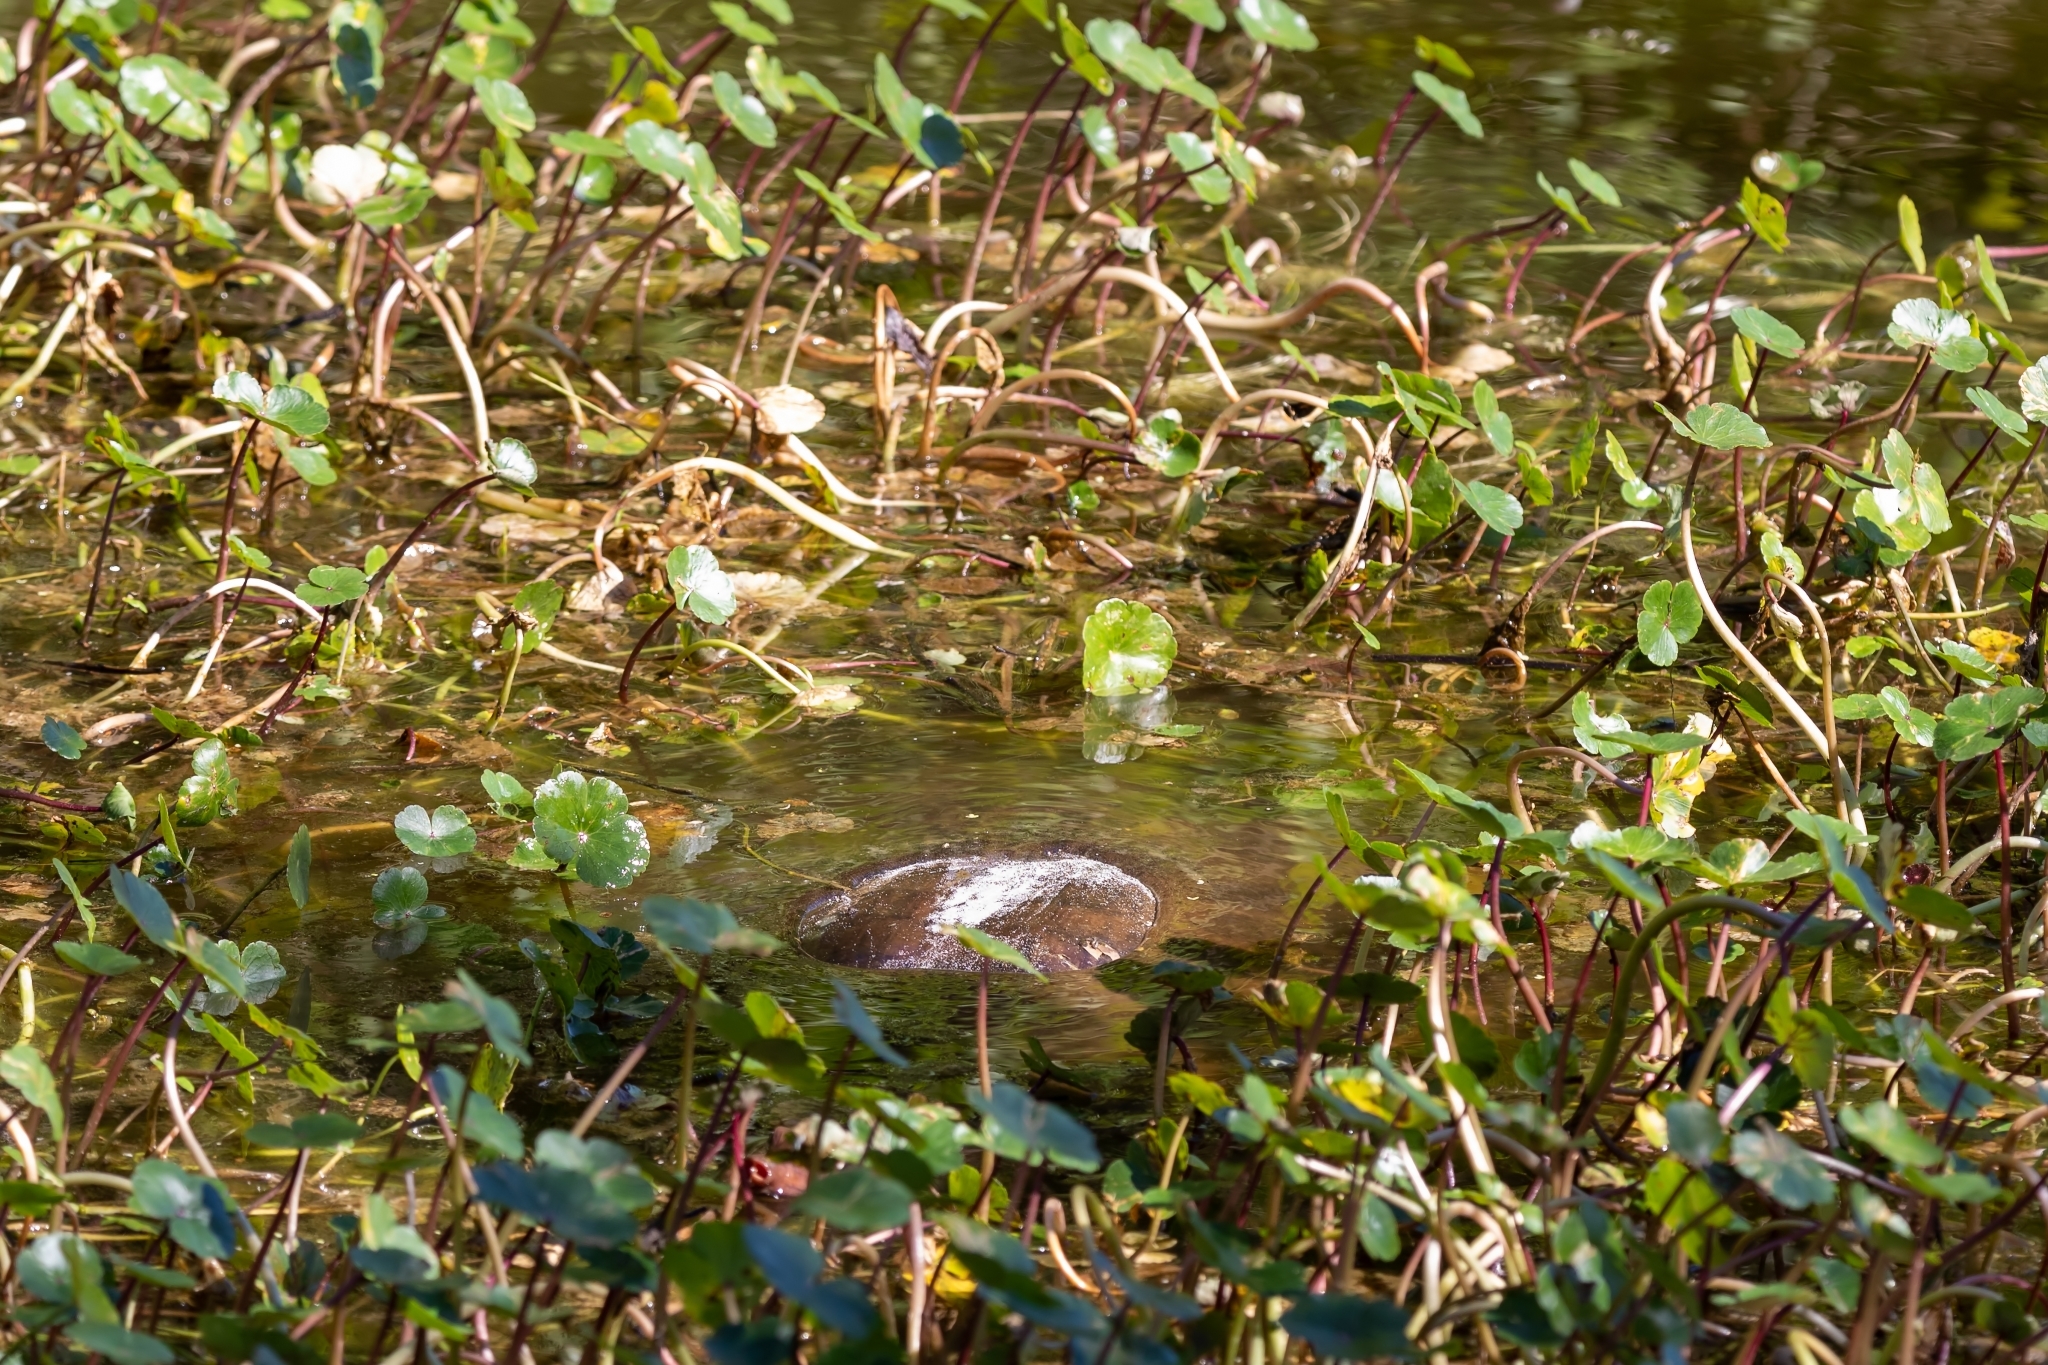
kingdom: Animalia
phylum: Chordata
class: Testudines
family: Trionychidae
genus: Apalone
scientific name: Apalone ferox
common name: Florida softshell turtle
